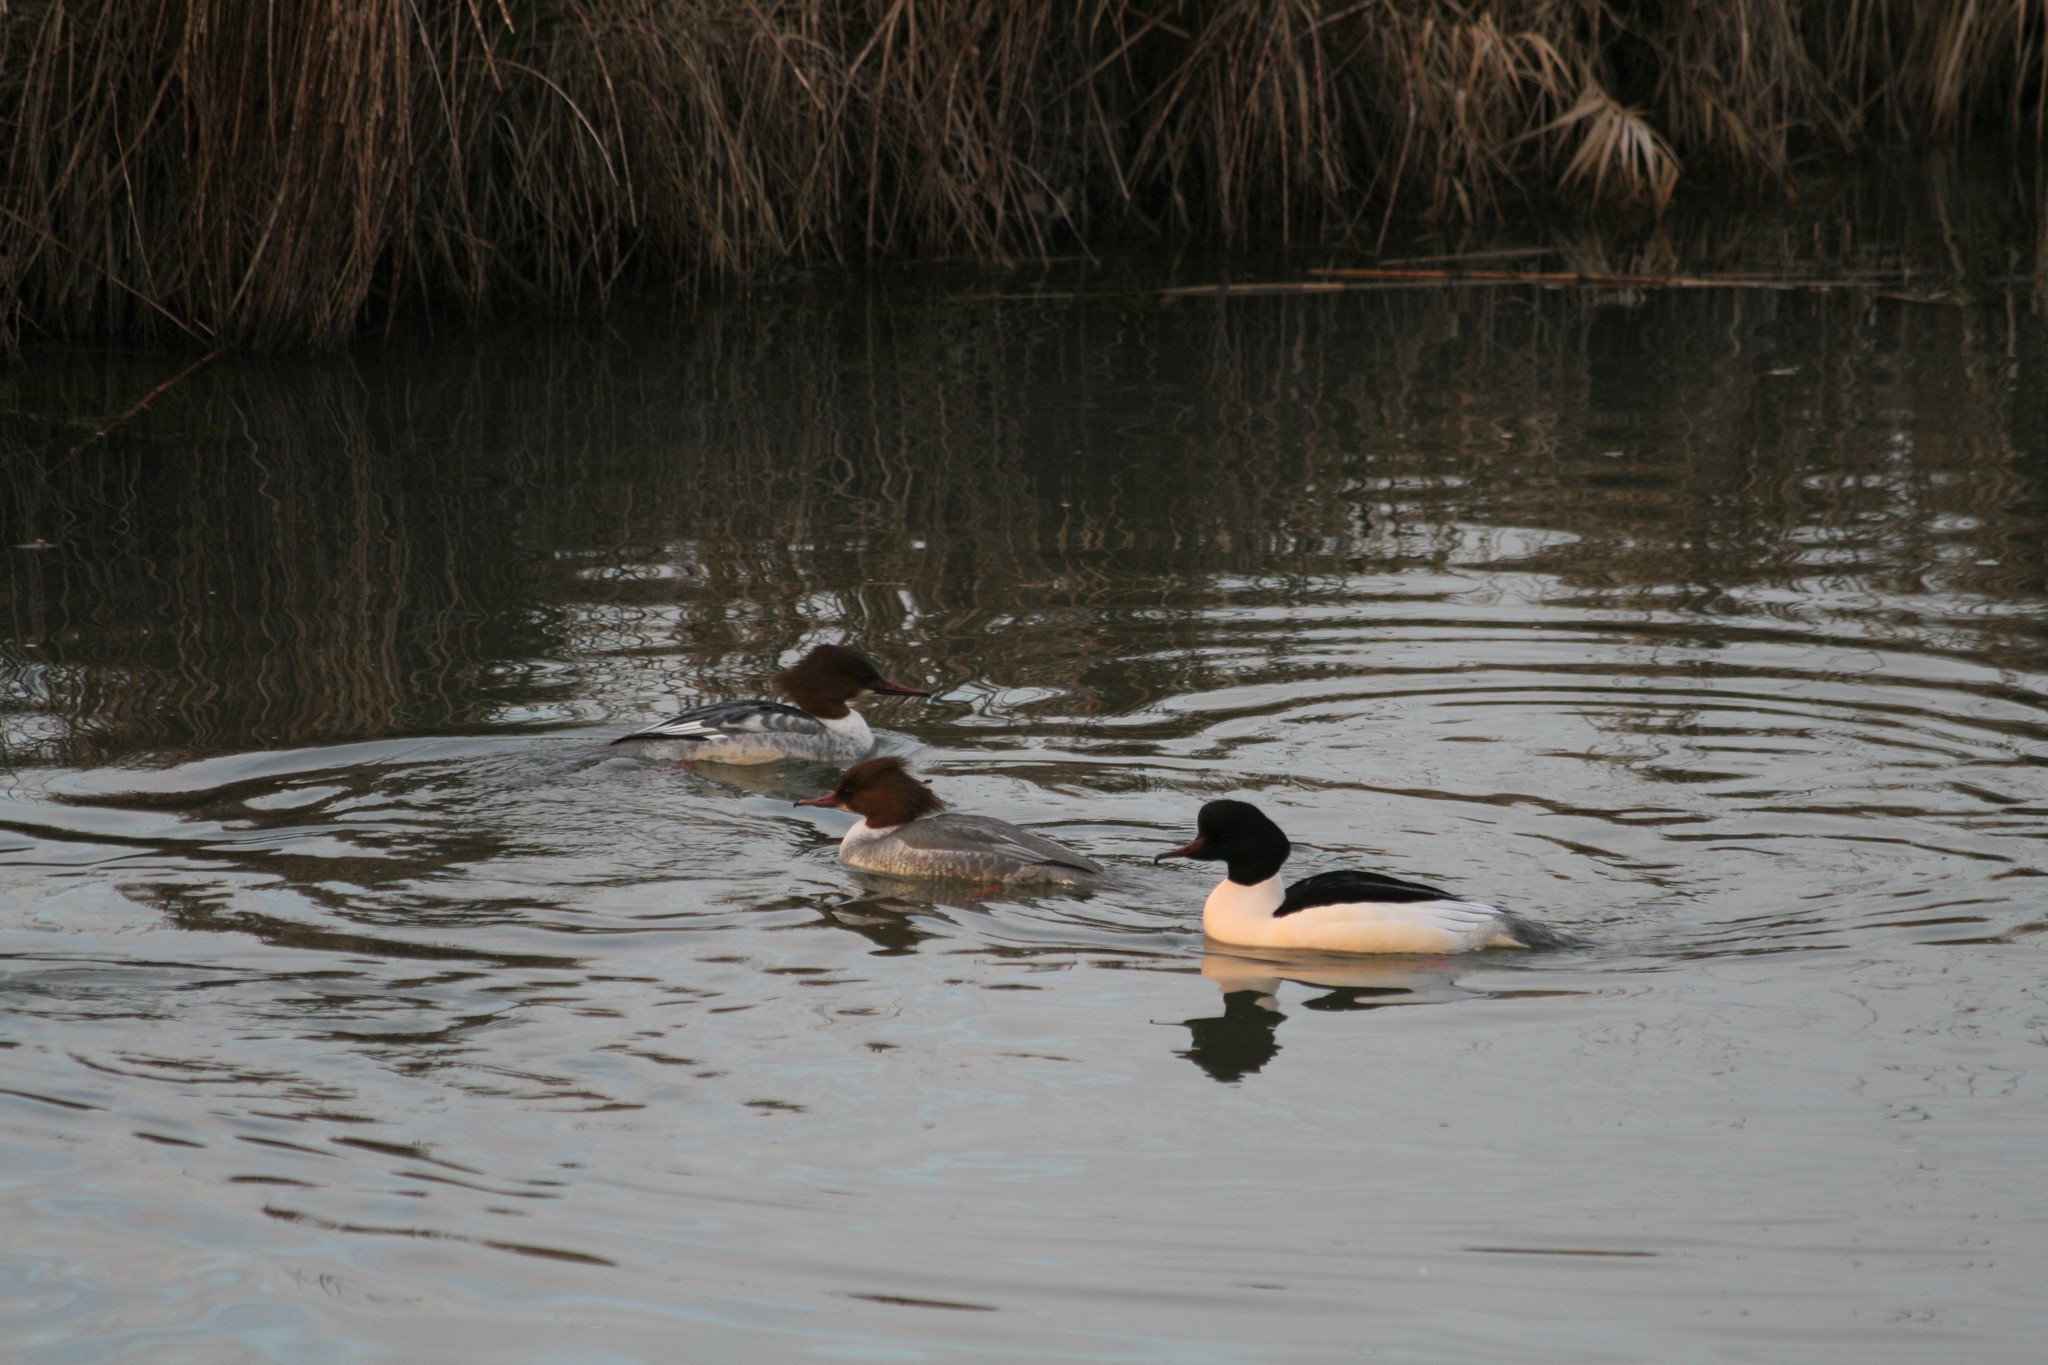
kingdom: Animalia
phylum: Chordata
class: Aves
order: Anseriformes
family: Anatidae
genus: Mergus
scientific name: Mergus merganser
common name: Common merganser
